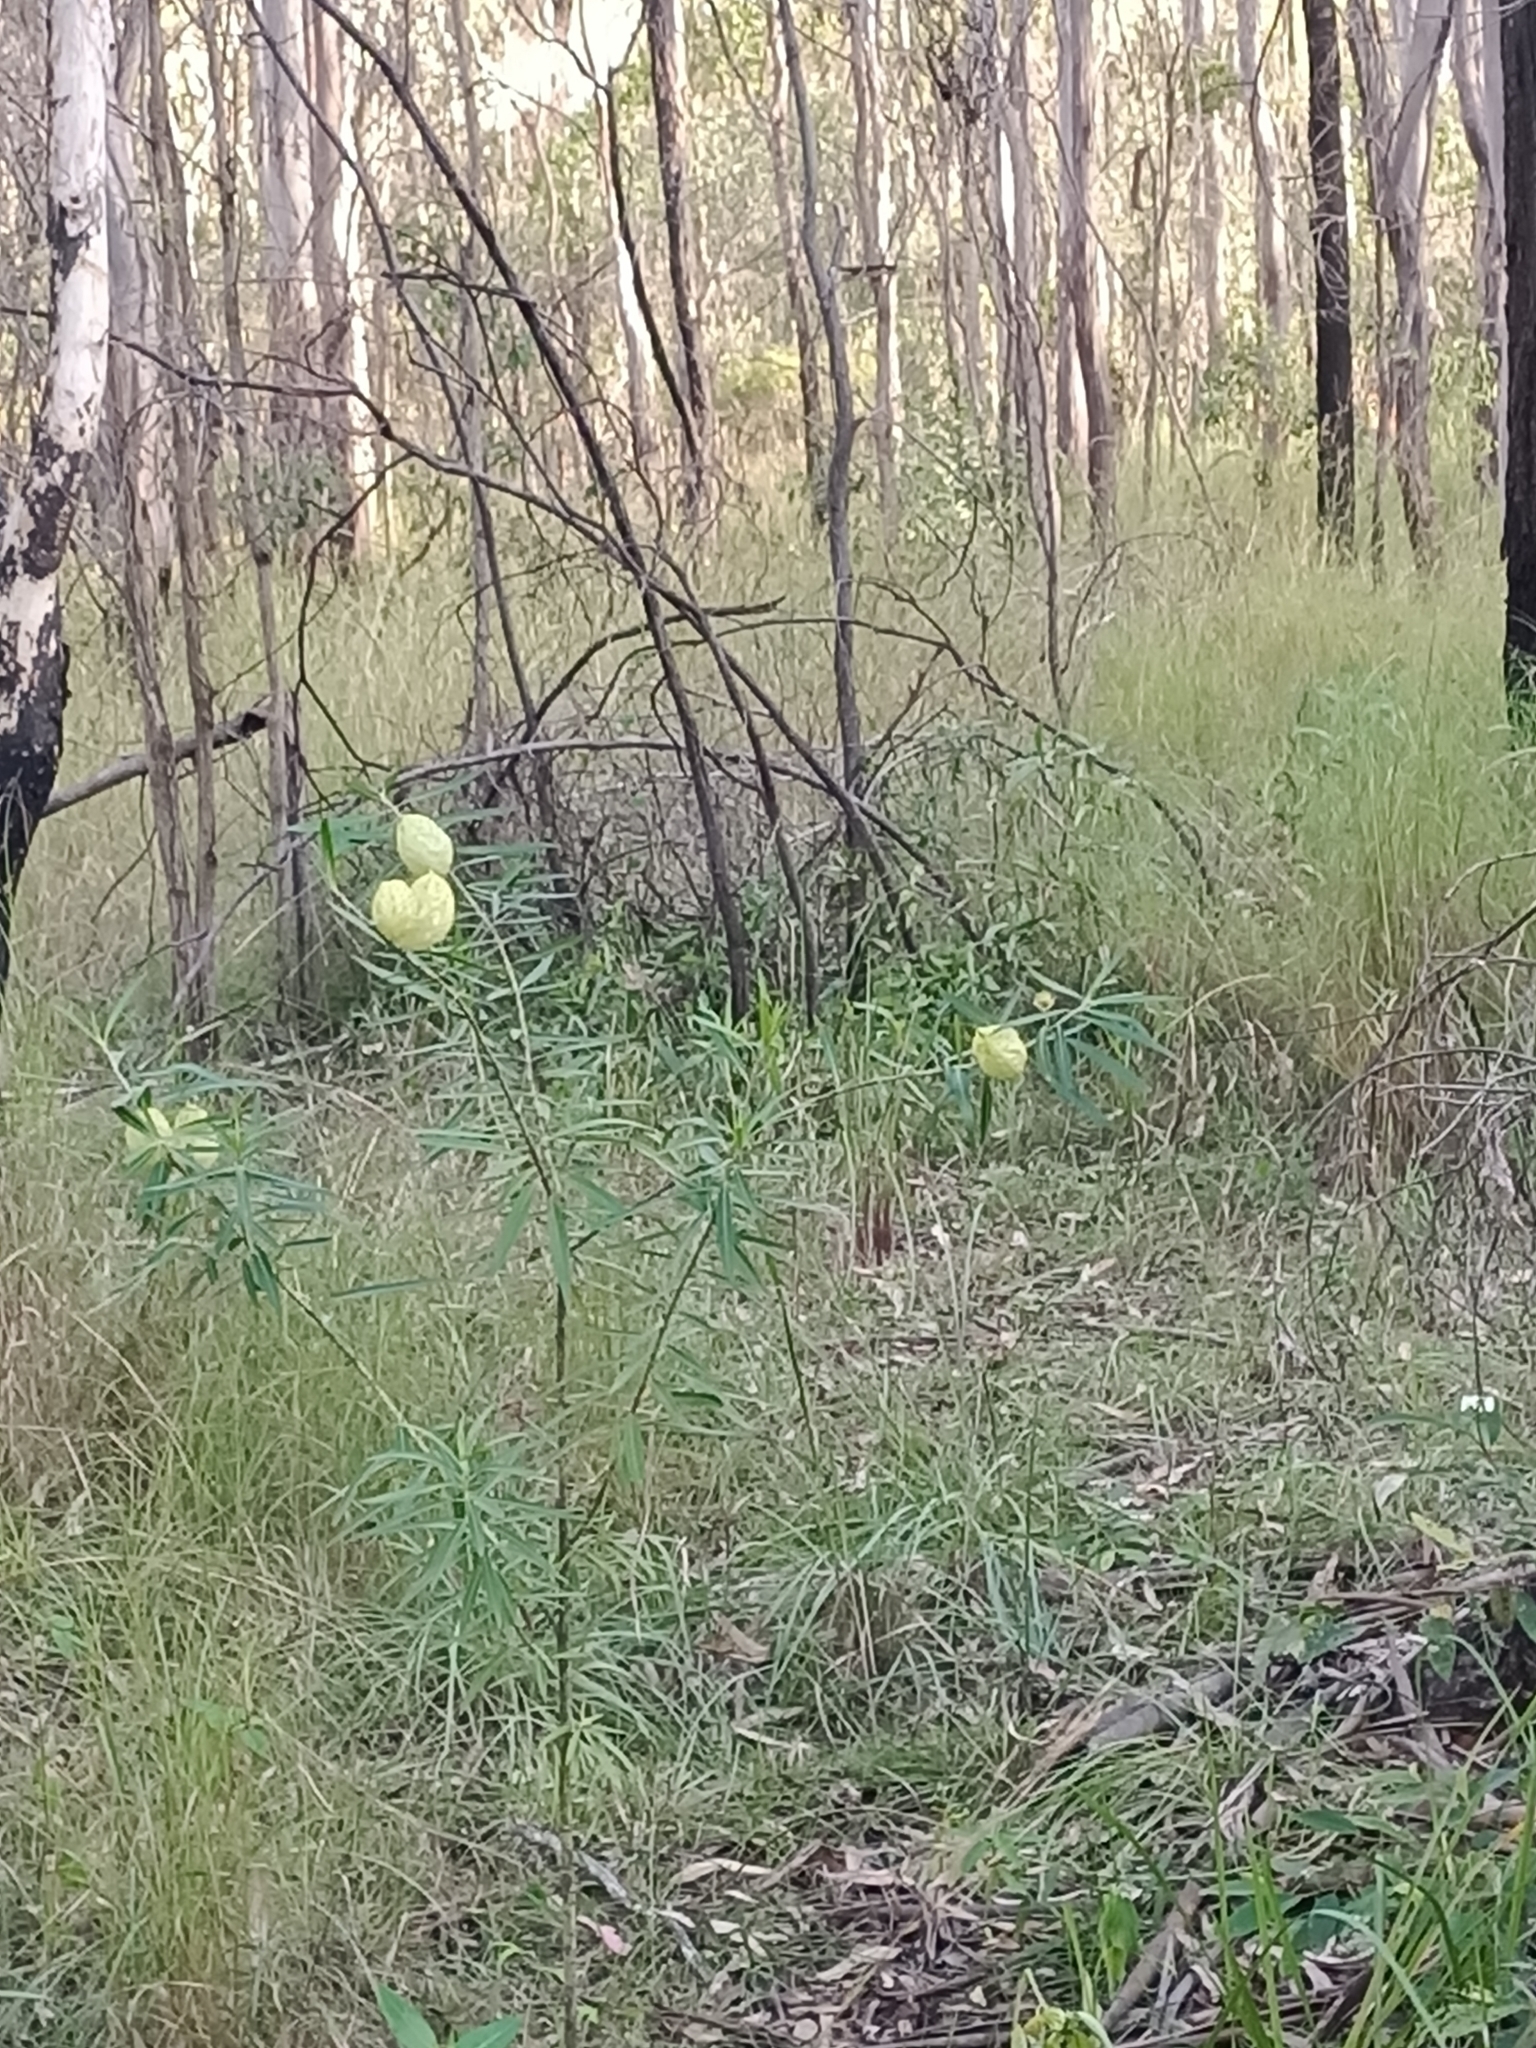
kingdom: Plantae
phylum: Tracheophyta
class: Magnoliopsida
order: Gentianales
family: Apocynaceae
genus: Gomphocarpus
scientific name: Gomphocarpus physocarpus
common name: Balloon cotton bush
